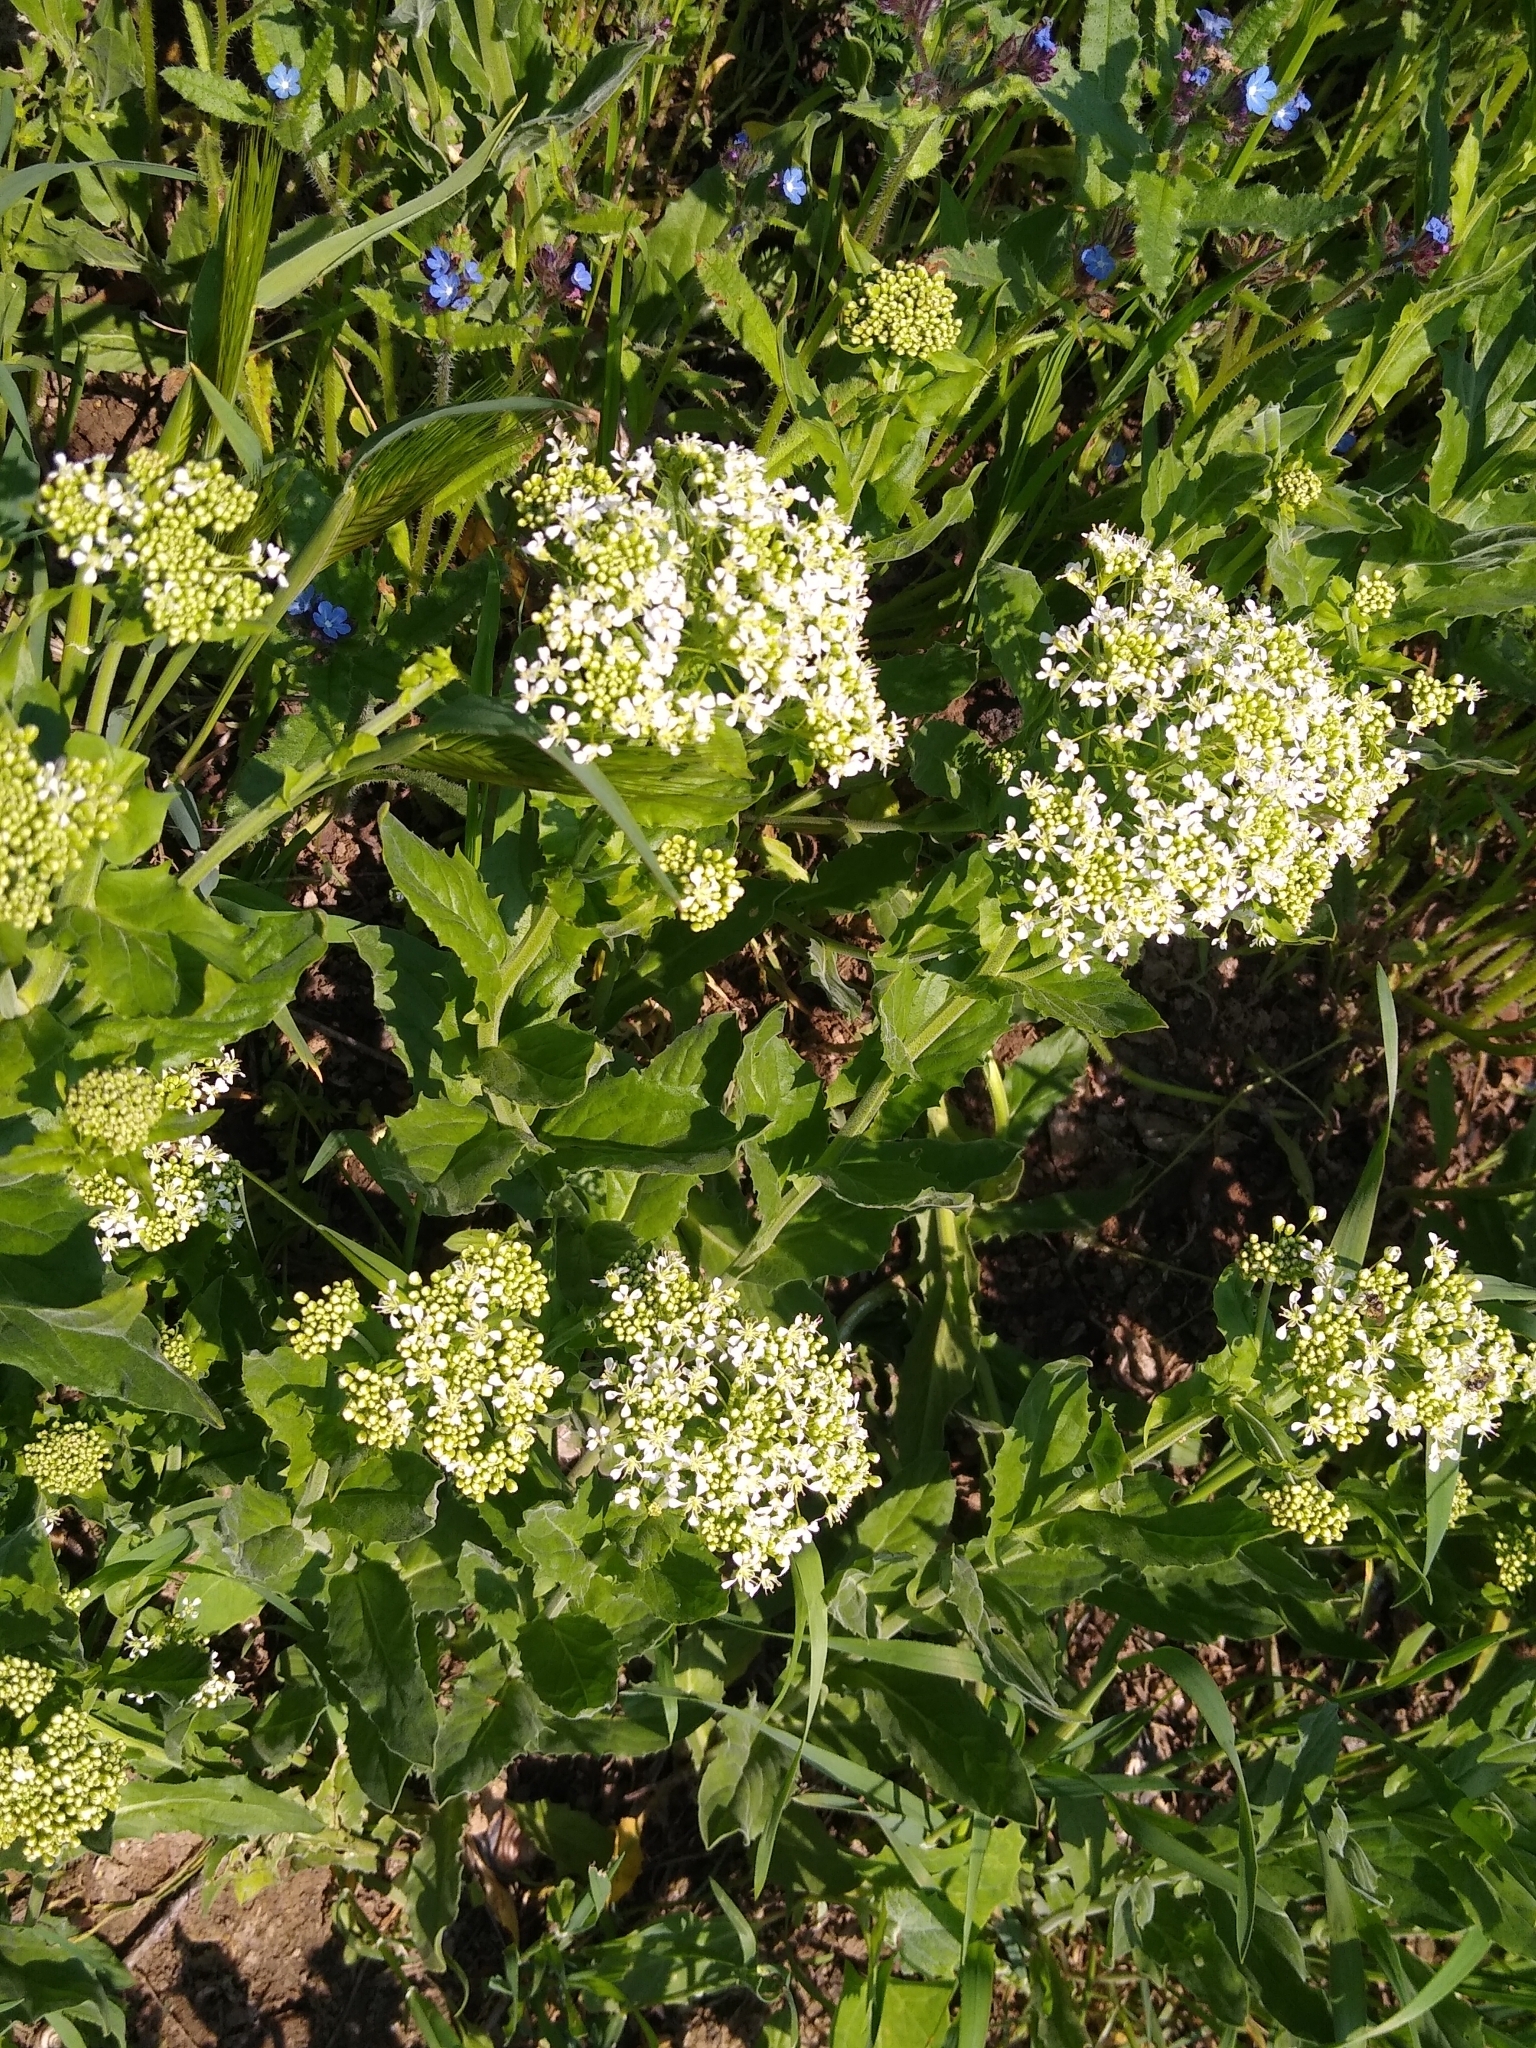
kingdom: Plantae
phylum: Tracheophyta
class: Magnoliopsida
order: Brassicales
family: Brassicaceae
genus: Lepidium
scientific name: Lepidium draba
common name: Hoary cress
